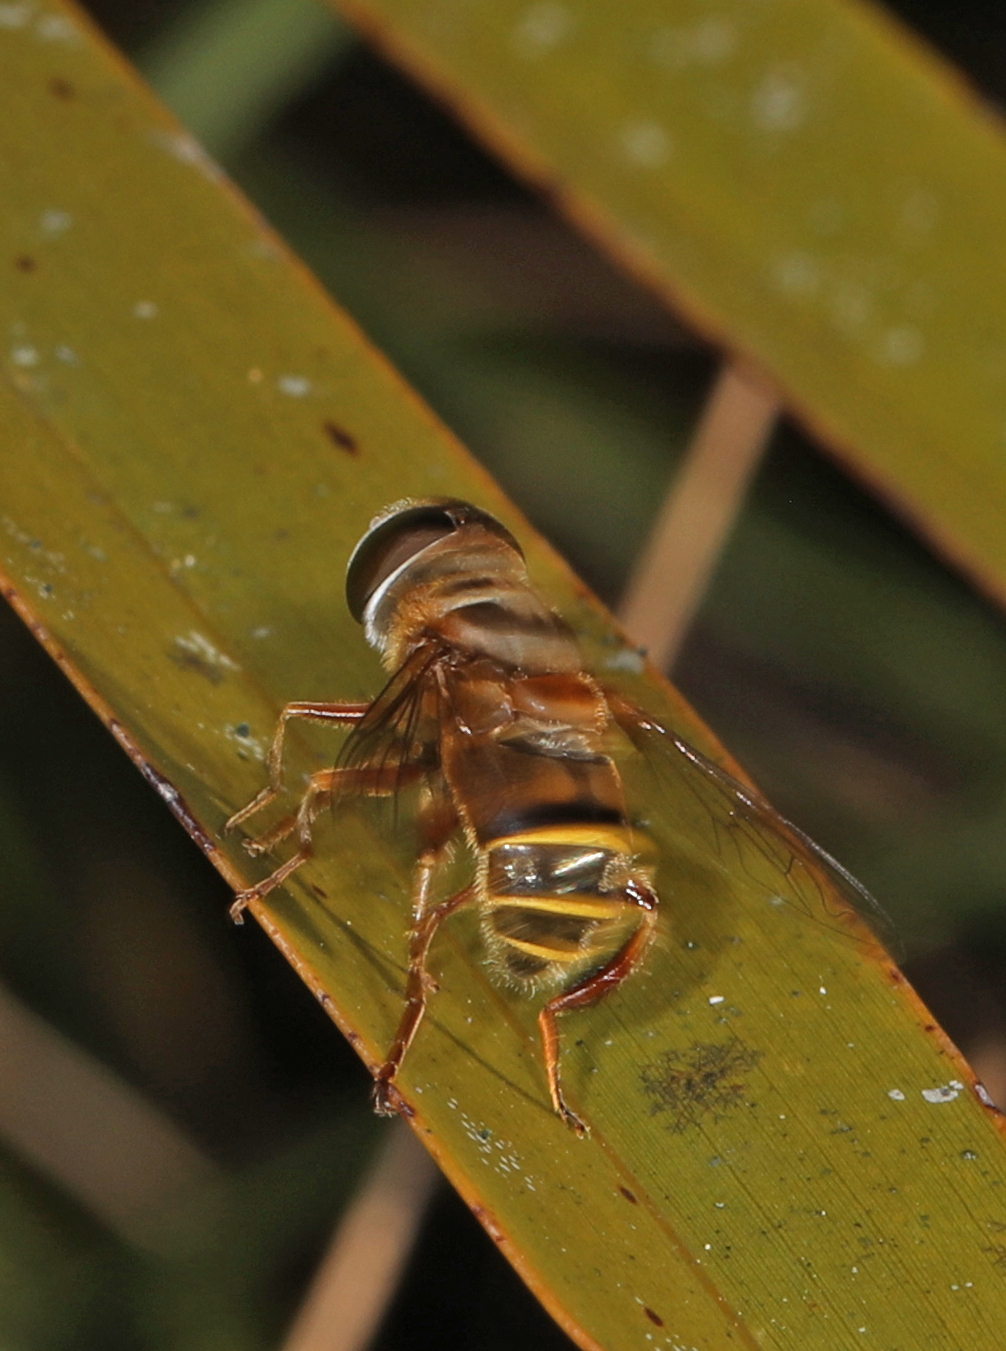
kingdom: Animalia
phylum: Arthropoda
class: Insecta
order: Diptera
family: Syrphidae
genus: Palpada
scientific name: Palpada vinetorum
